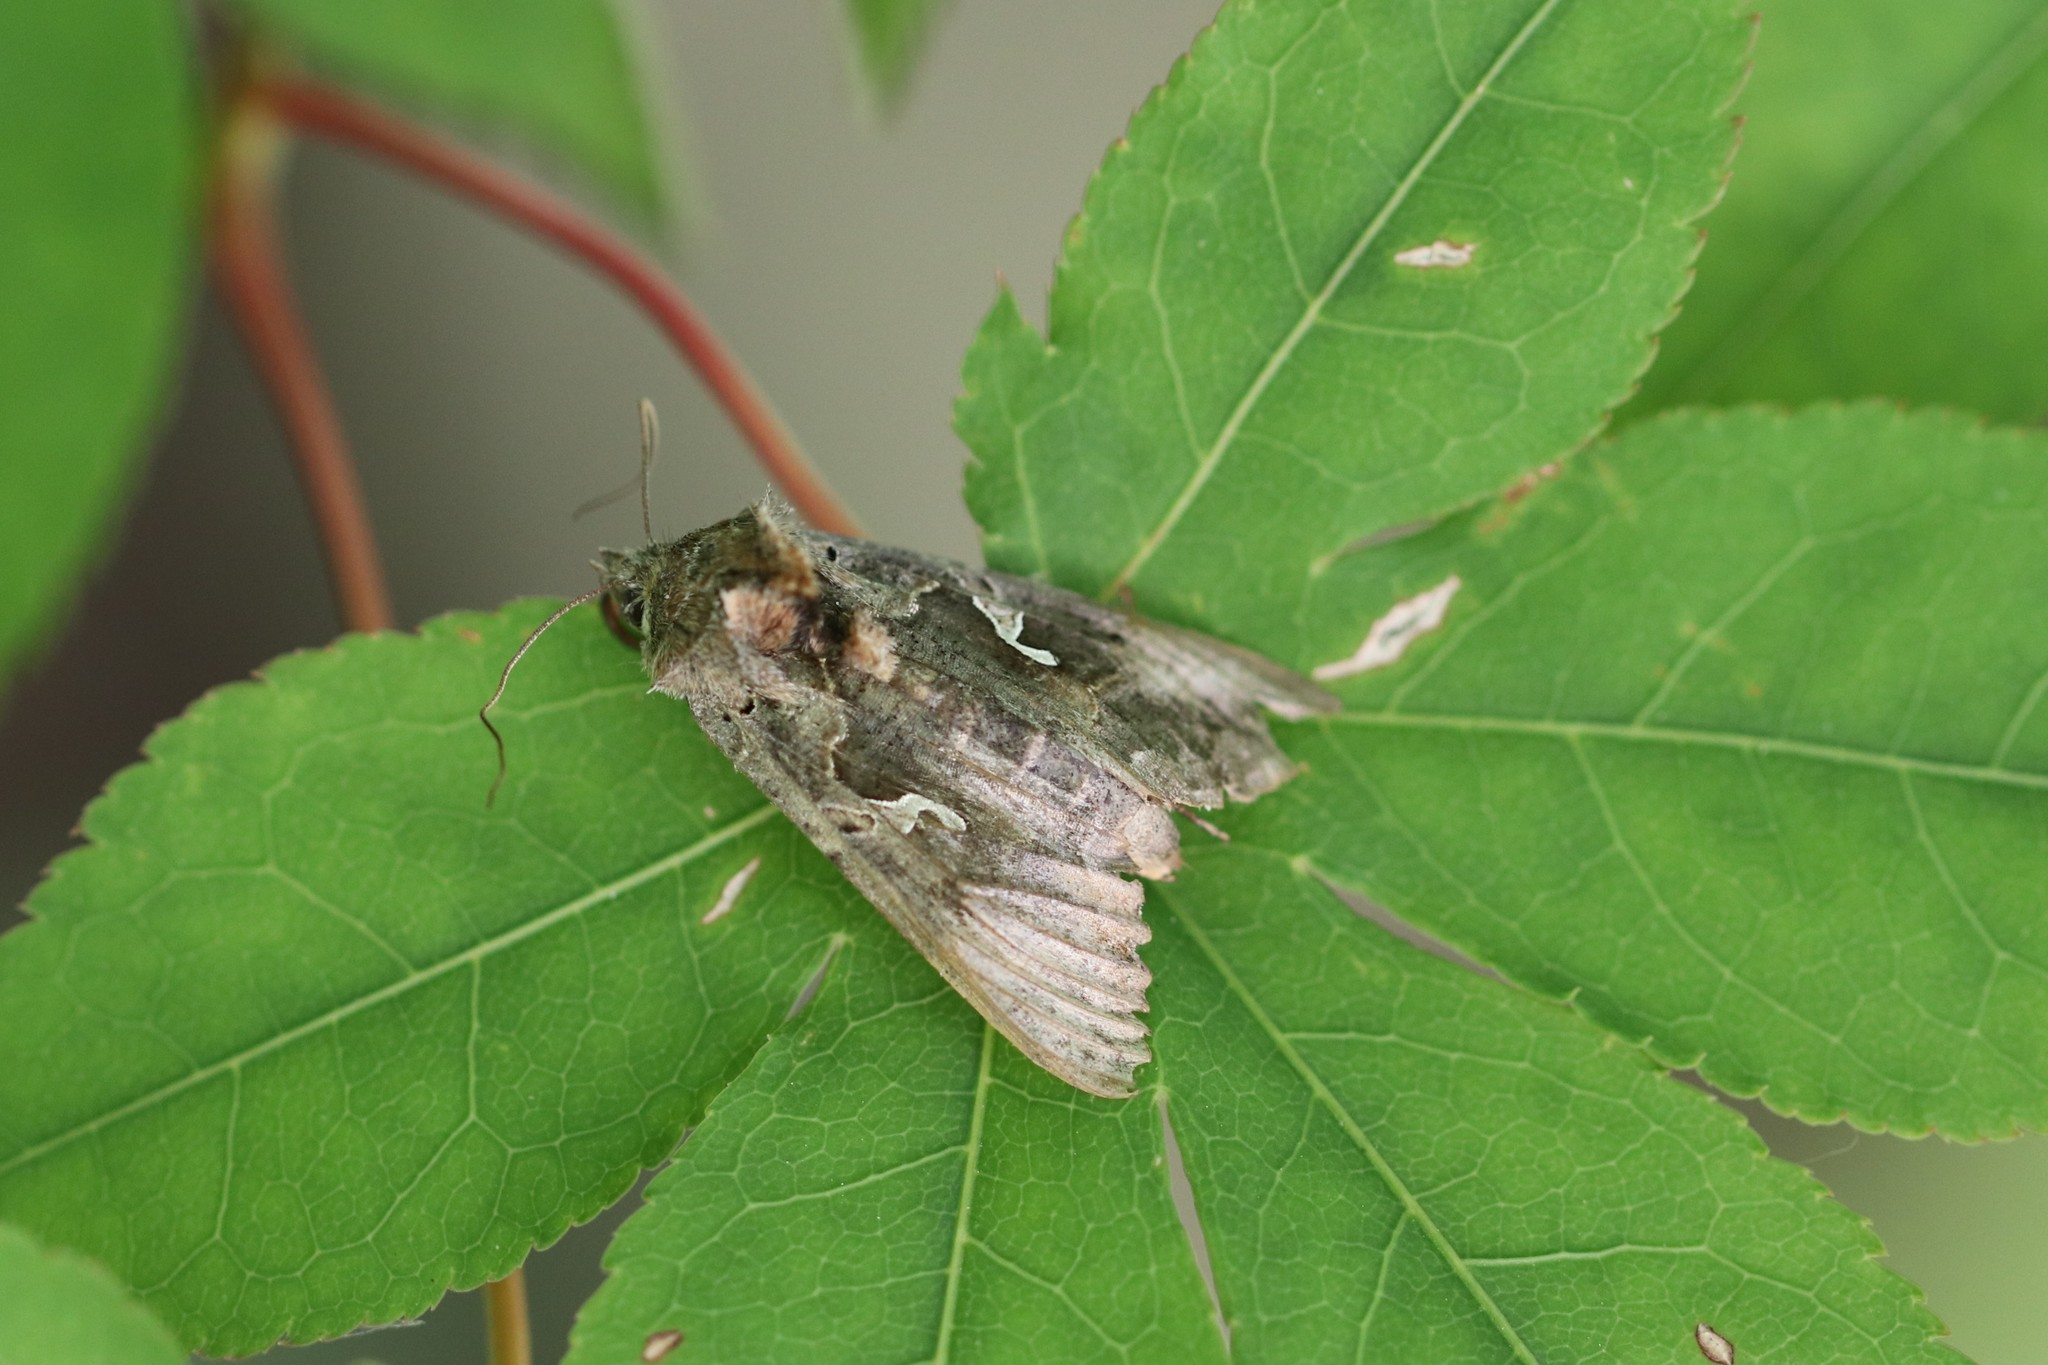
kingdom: Animalia
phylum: Arthropoda
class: Insecta
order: Lepidoptera
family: Noctuidae
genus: Autographa
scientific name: Autographa gamma
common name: Silver y
